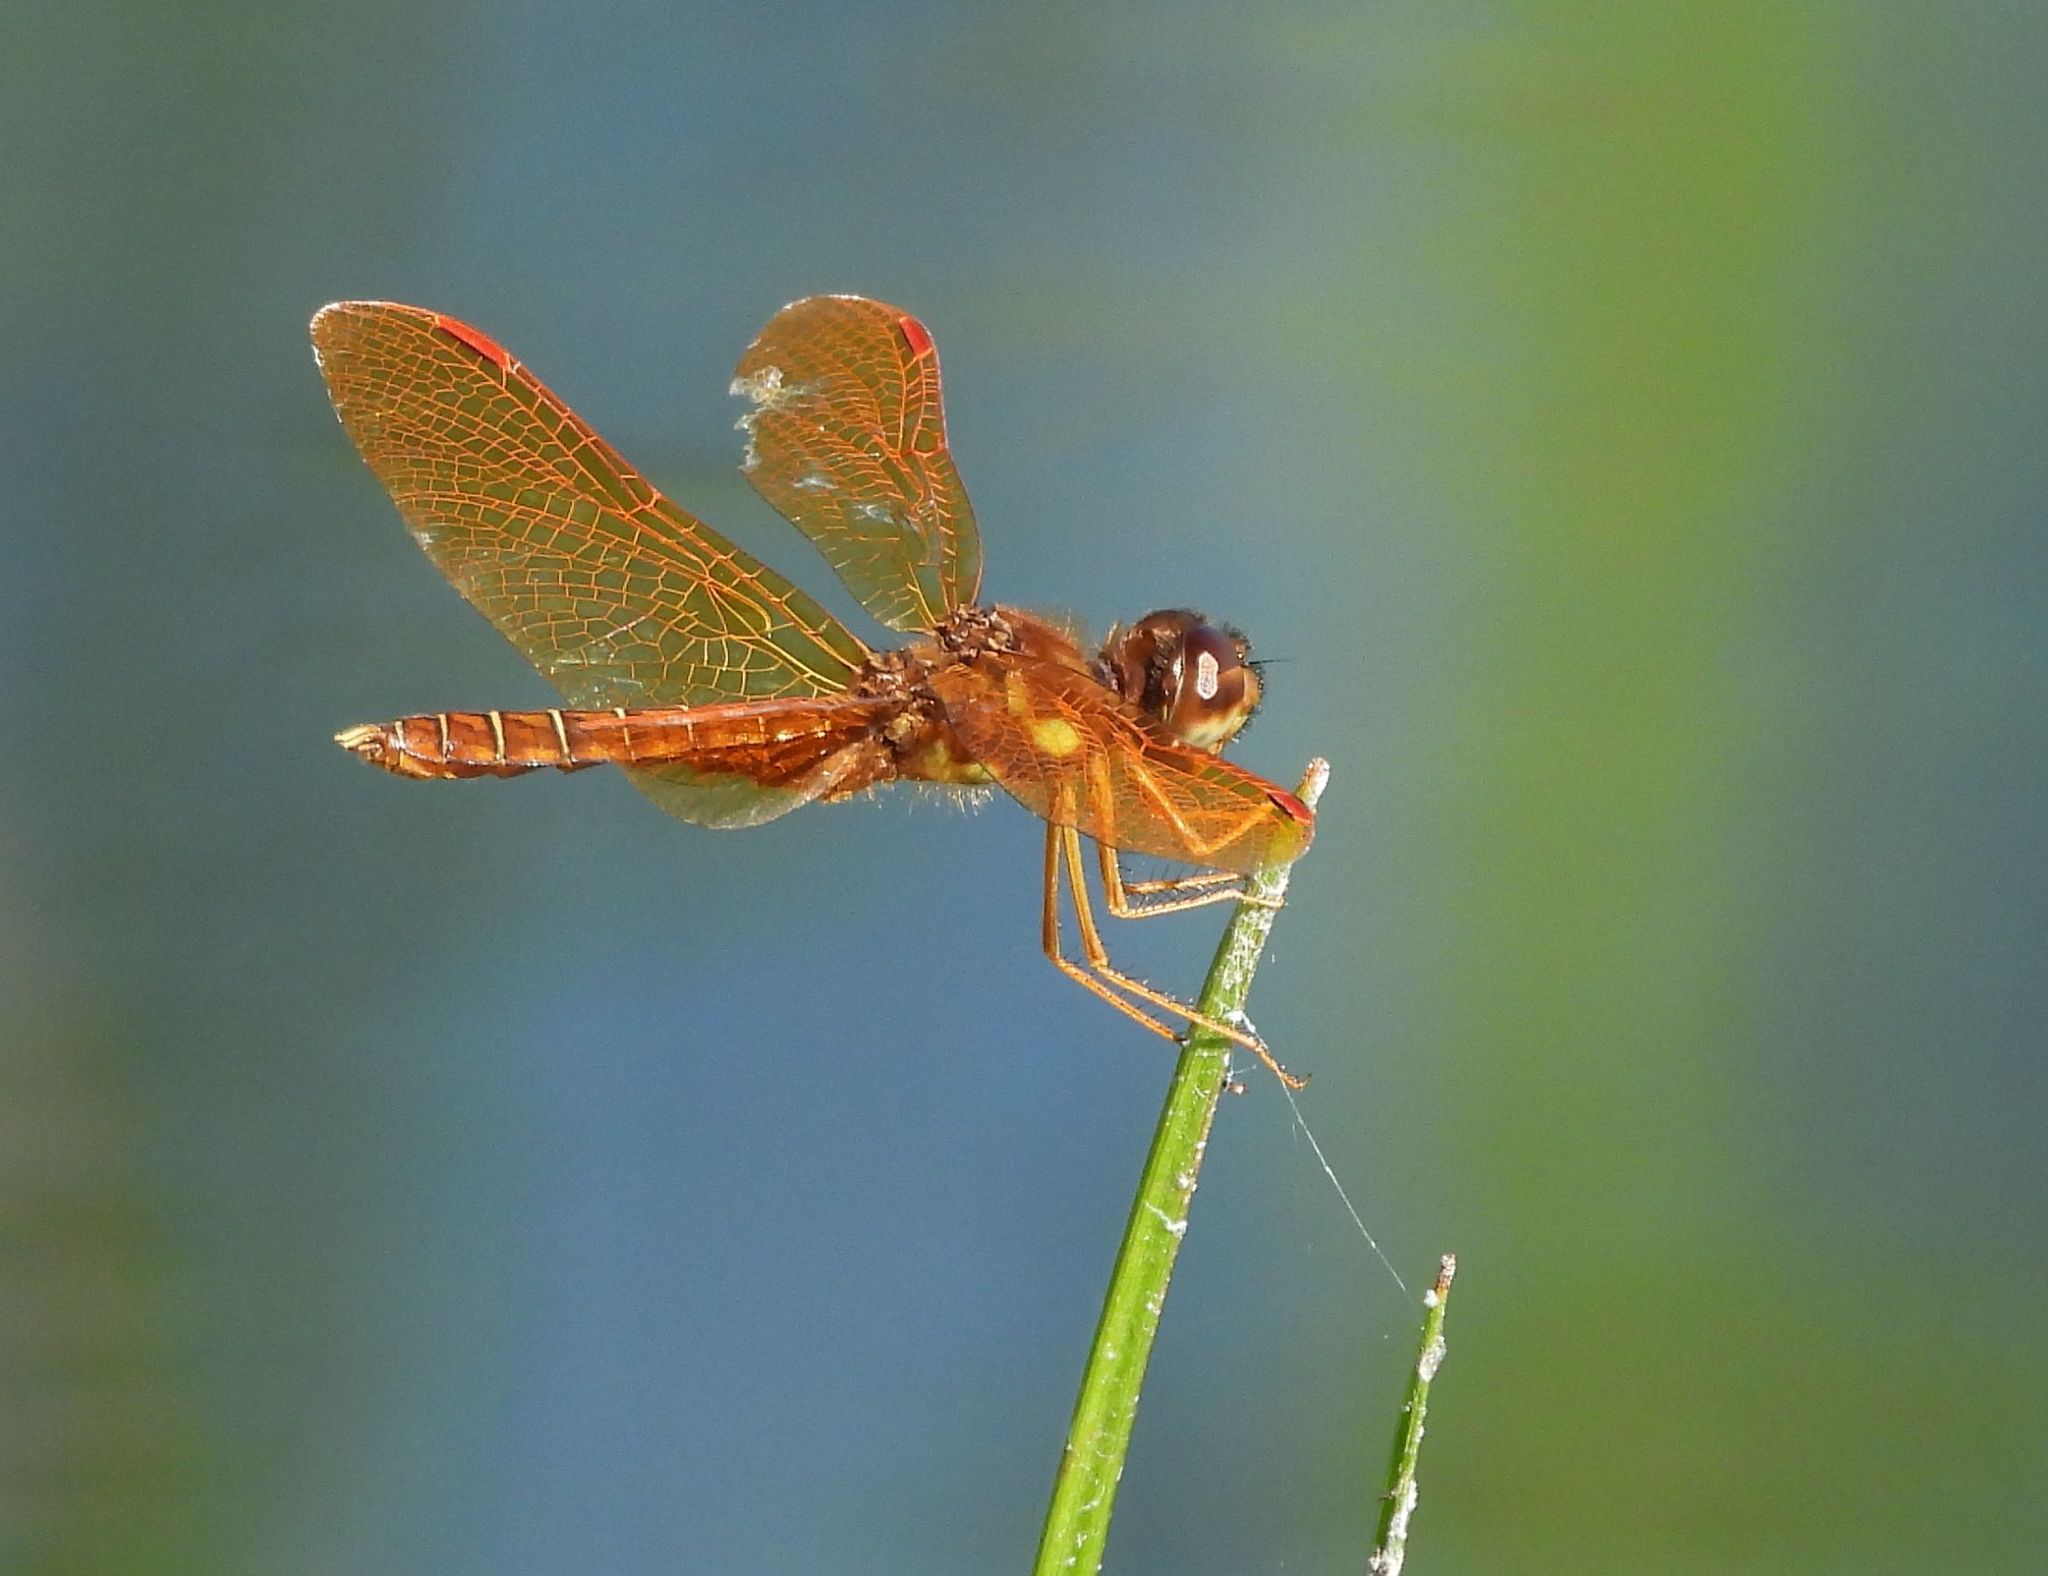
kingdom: Animalia
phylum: Arthropoda
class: Insecta
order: Odonata
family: Libellulidae
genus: Perithemis
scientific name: Perithemis tenera
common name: Eastern amberwing
